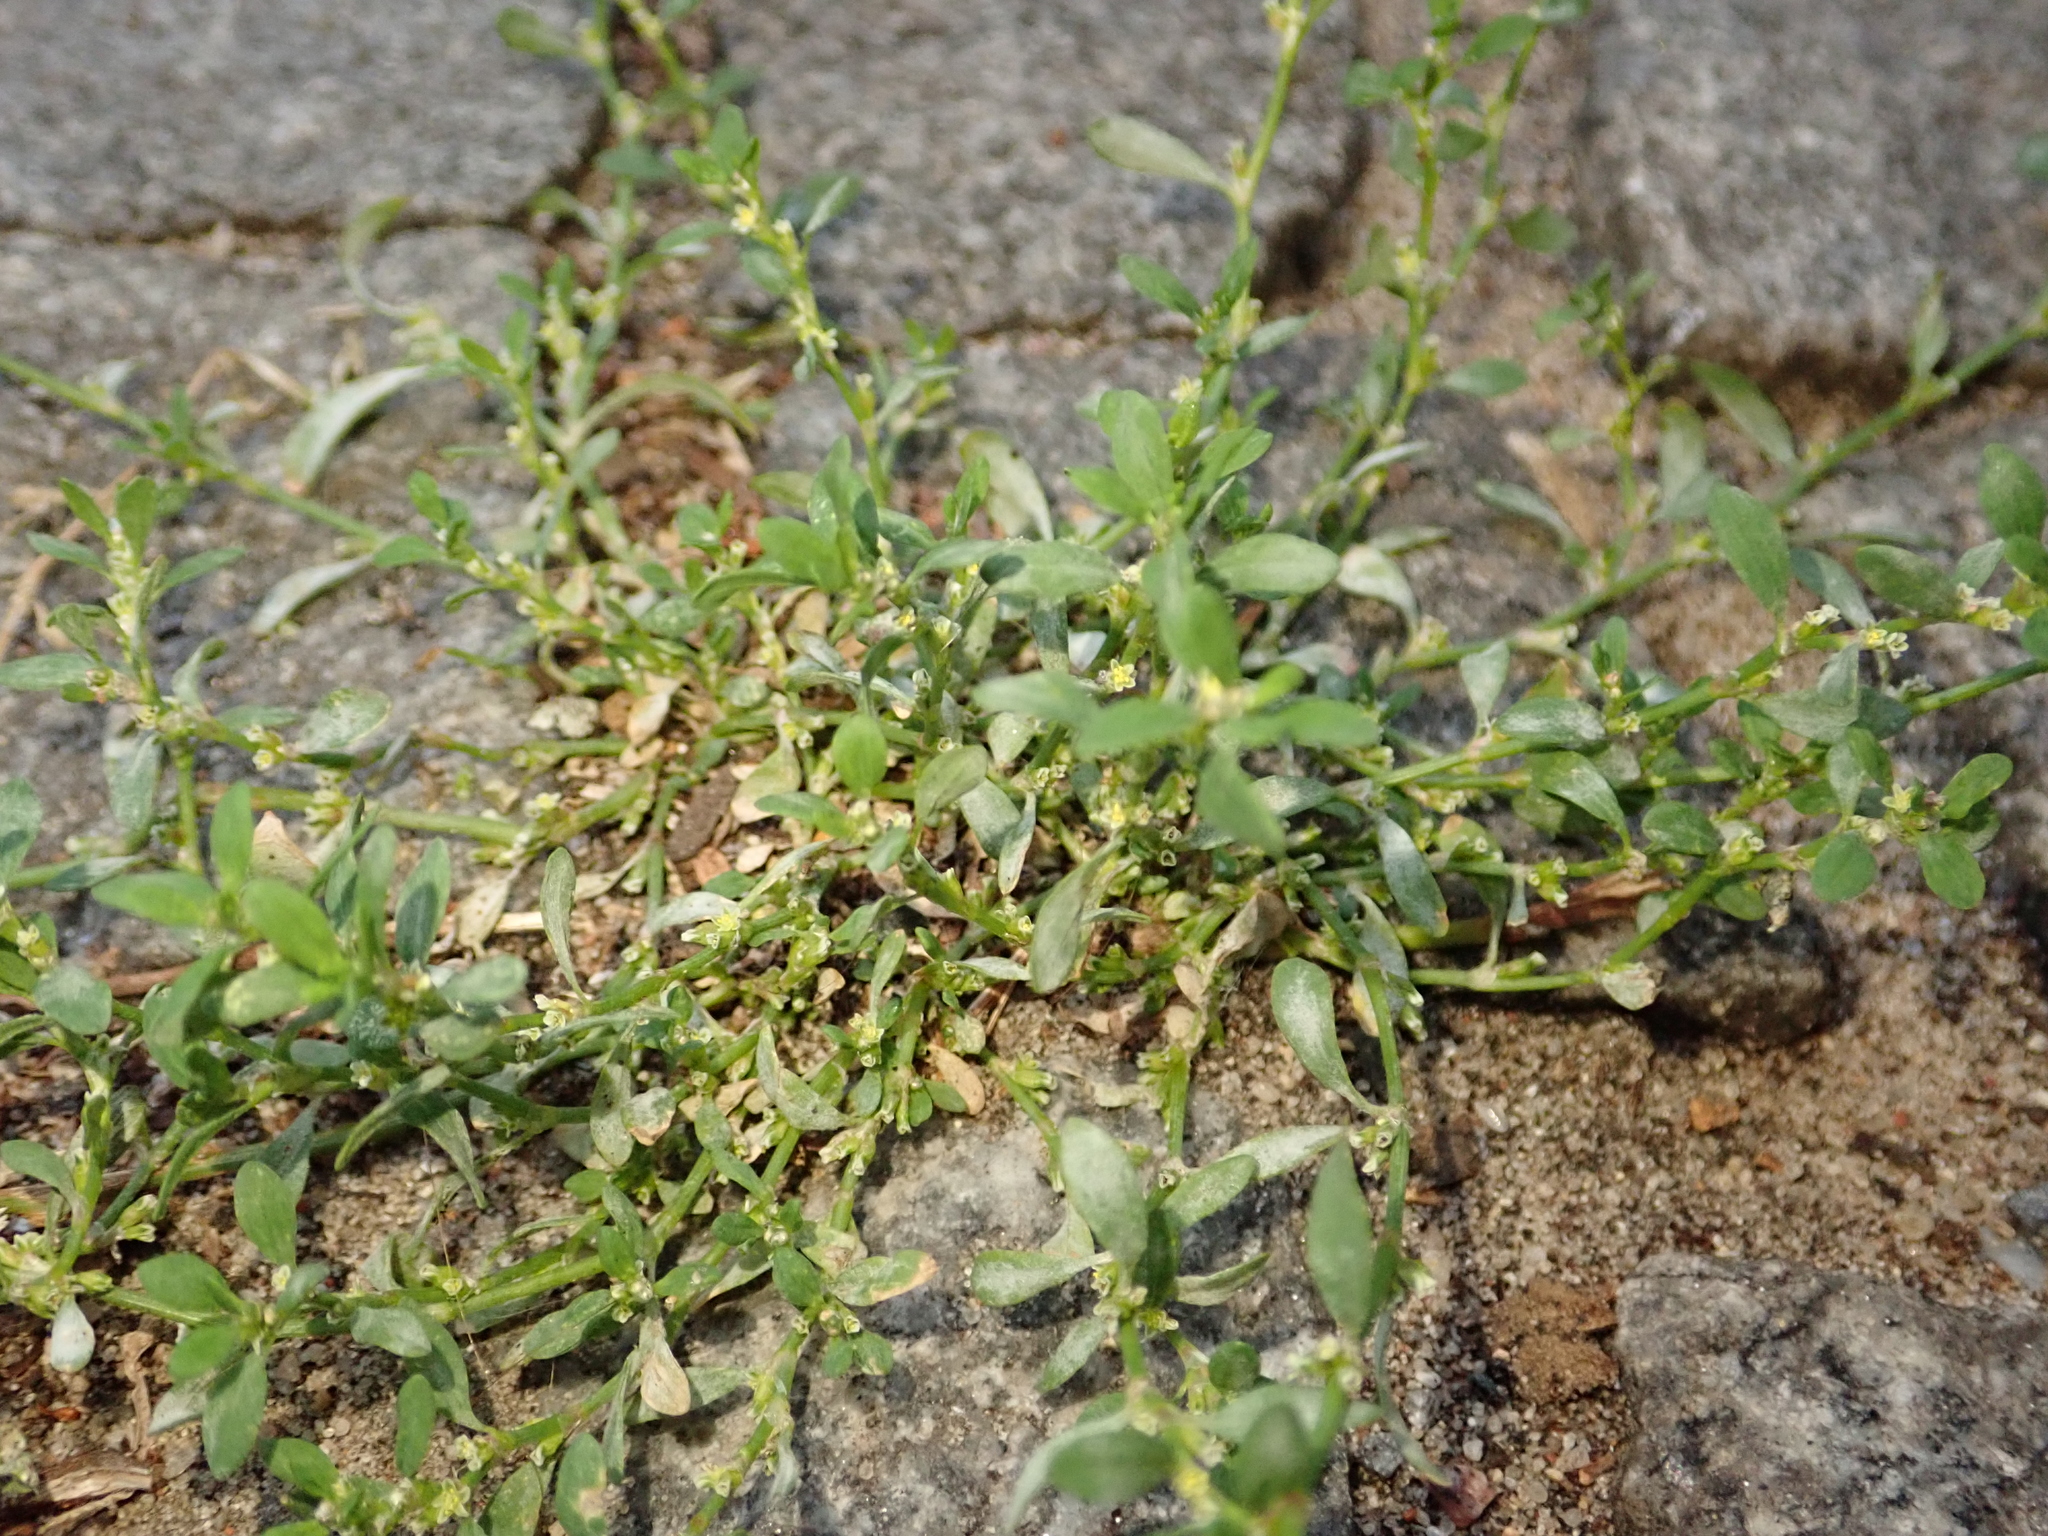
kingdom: Plantae
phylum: Tracheophyta
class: Magnoliopsida
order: Caryophyllales
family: Polygonaceae
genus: Polygonum
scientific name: Polygonum aviculare
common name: Prostrate knotweed
